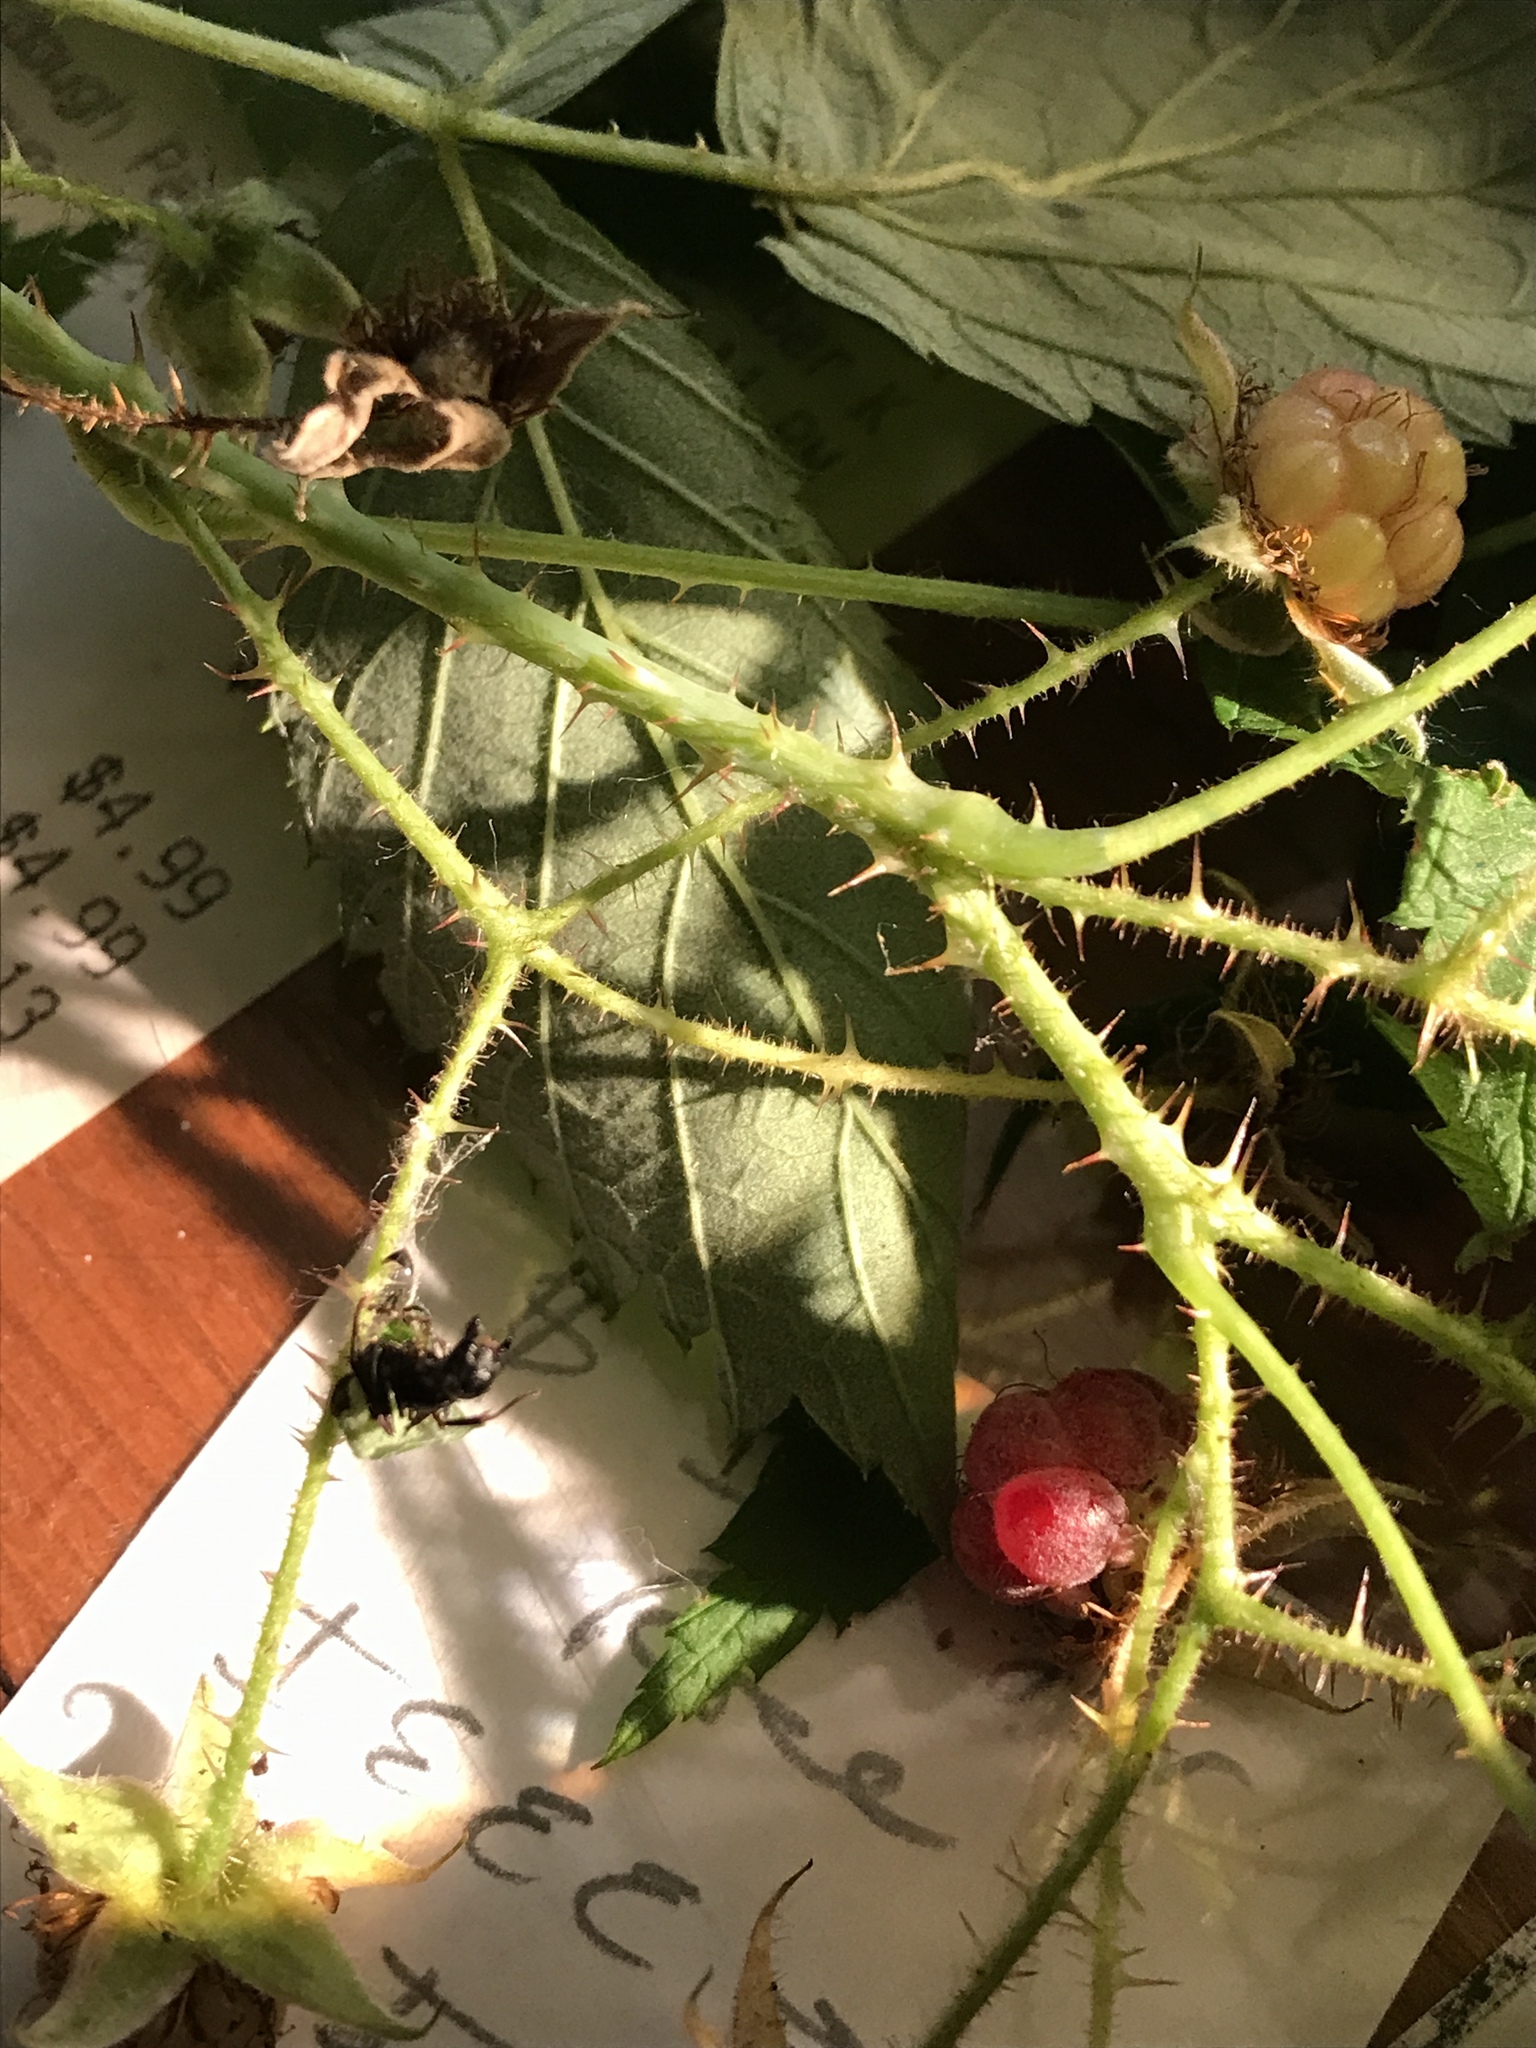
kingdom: Plantae
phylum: Tracheophyta
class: Magnoliopsida
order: Rosales
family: Rosaceae
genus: Rubus
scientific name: Rubus neglectus
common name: Purple wild raspberry
